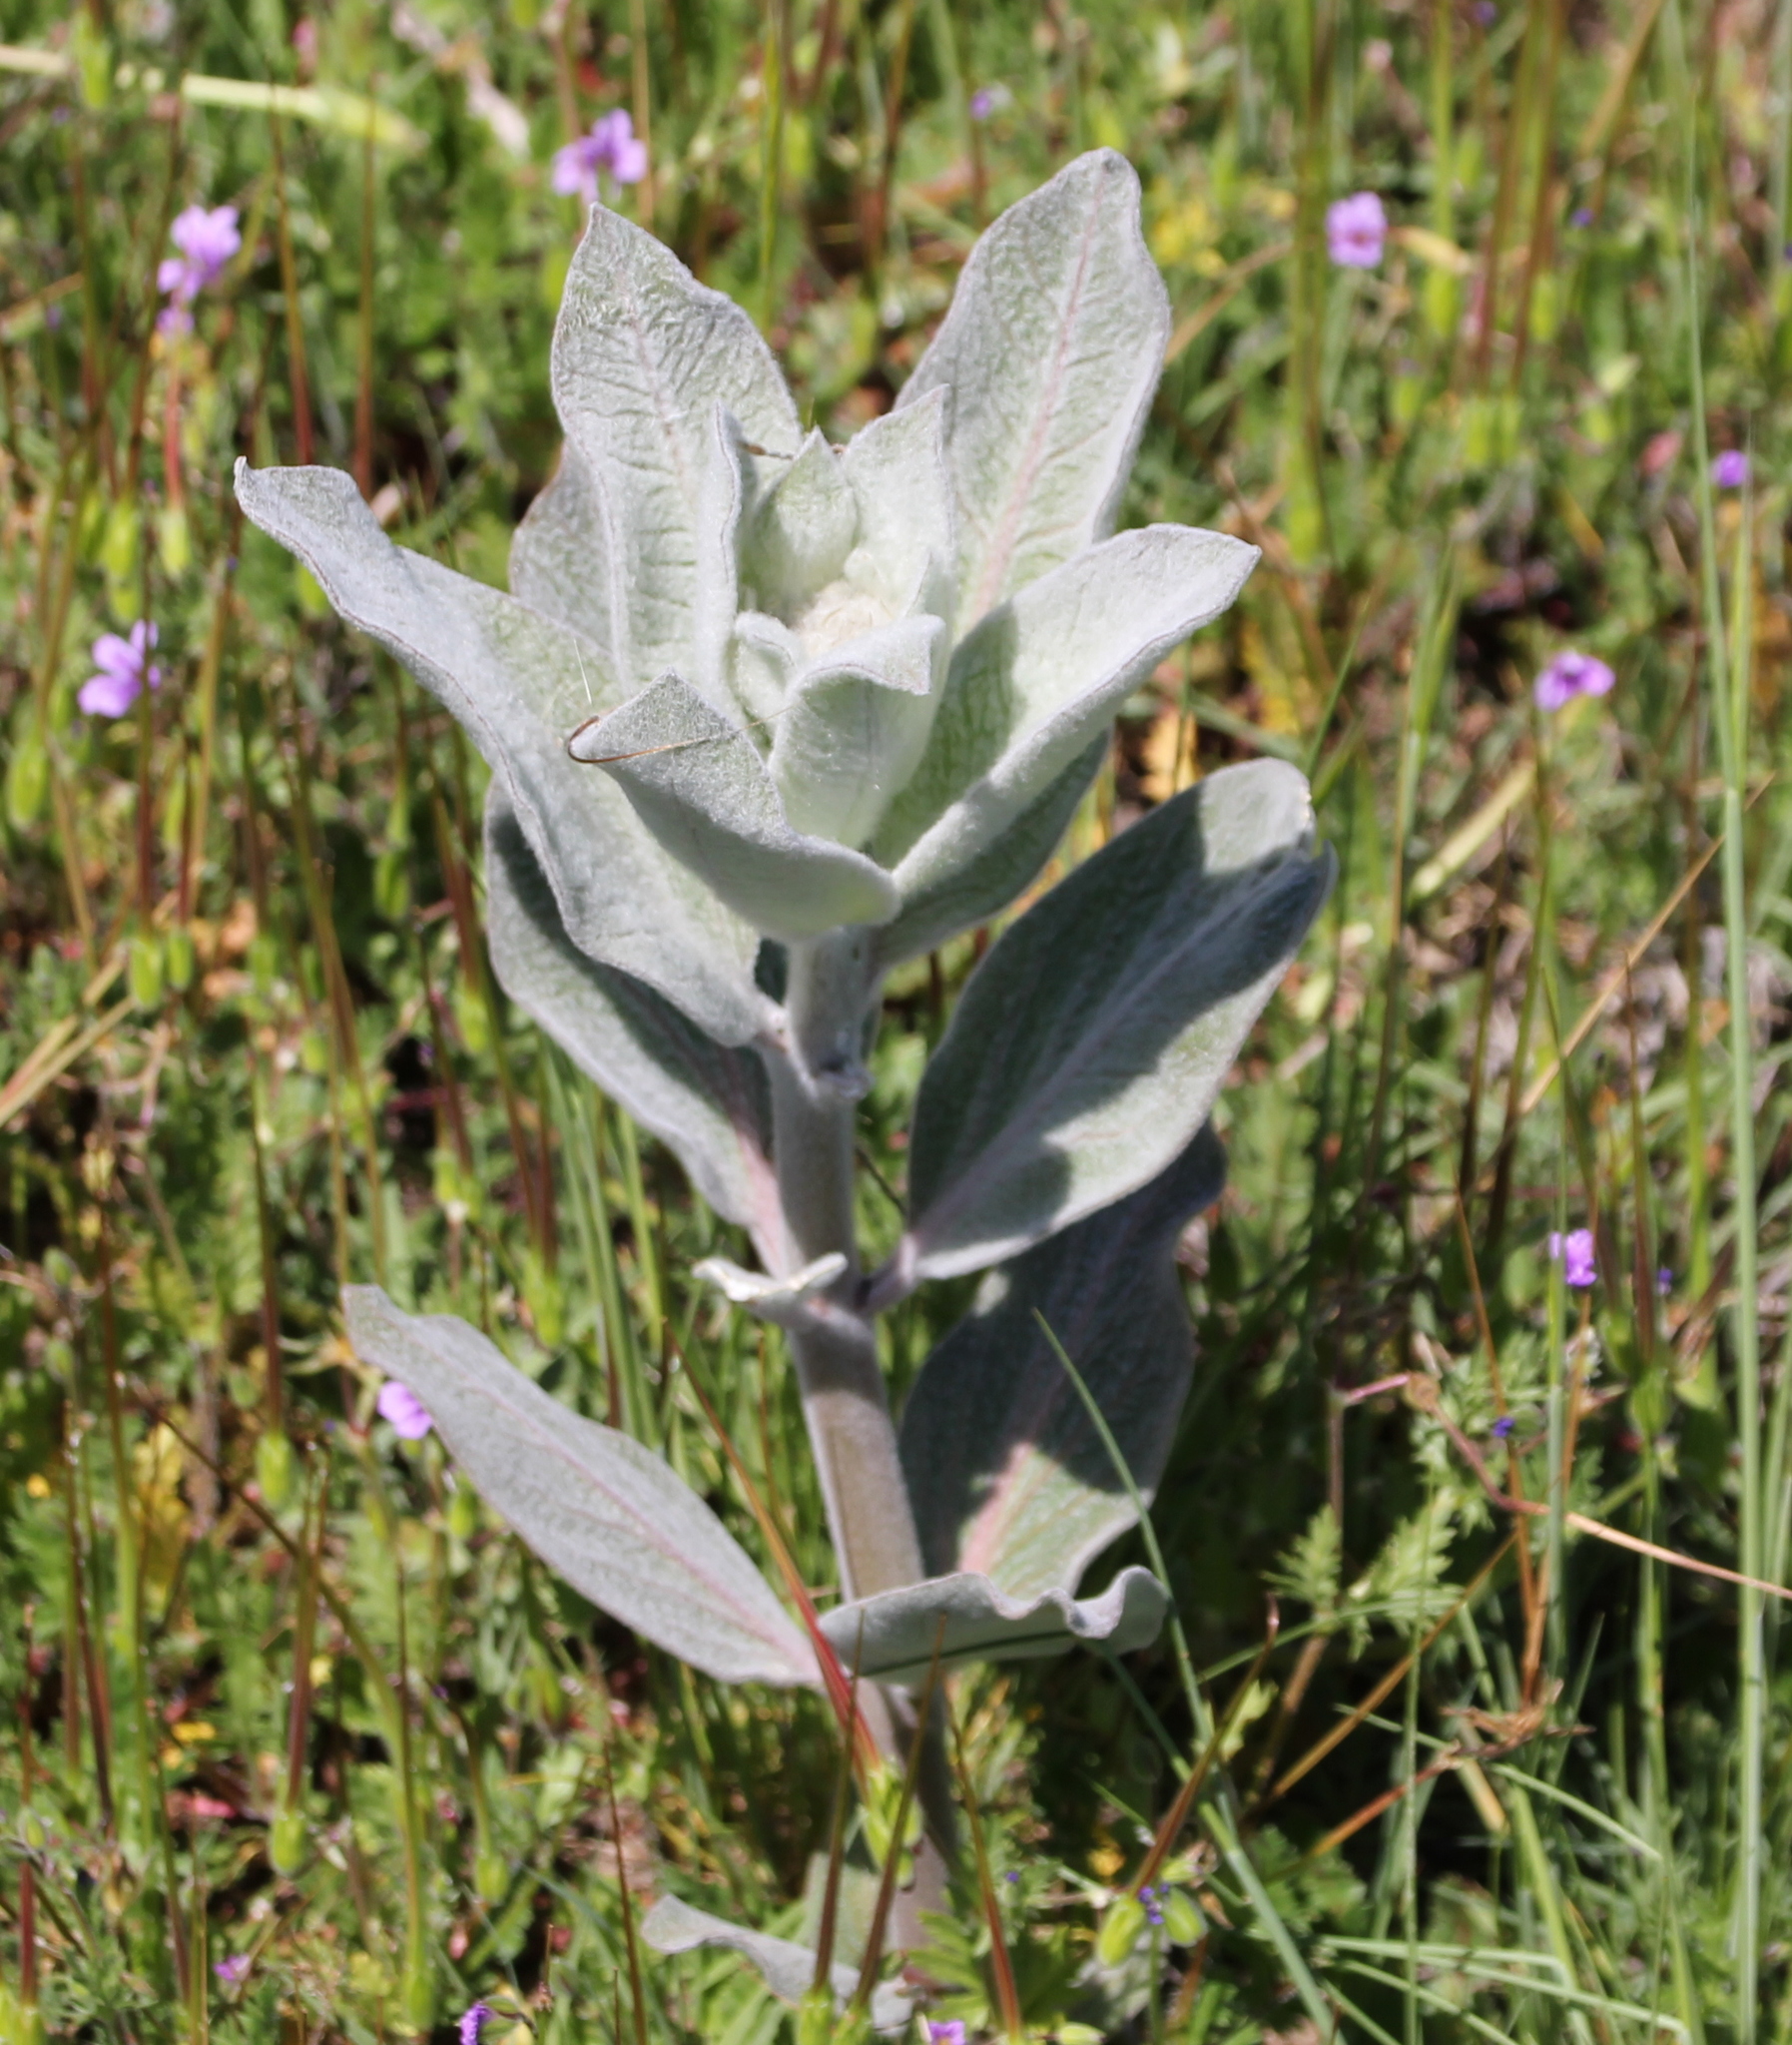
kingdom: Plantae
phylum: Tracheophyta
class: Magnoliopsida
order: Gentianales
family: Apocynaceae
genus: Asclepias
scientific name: Asclepias eriocarpa
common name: Indian milkweed
